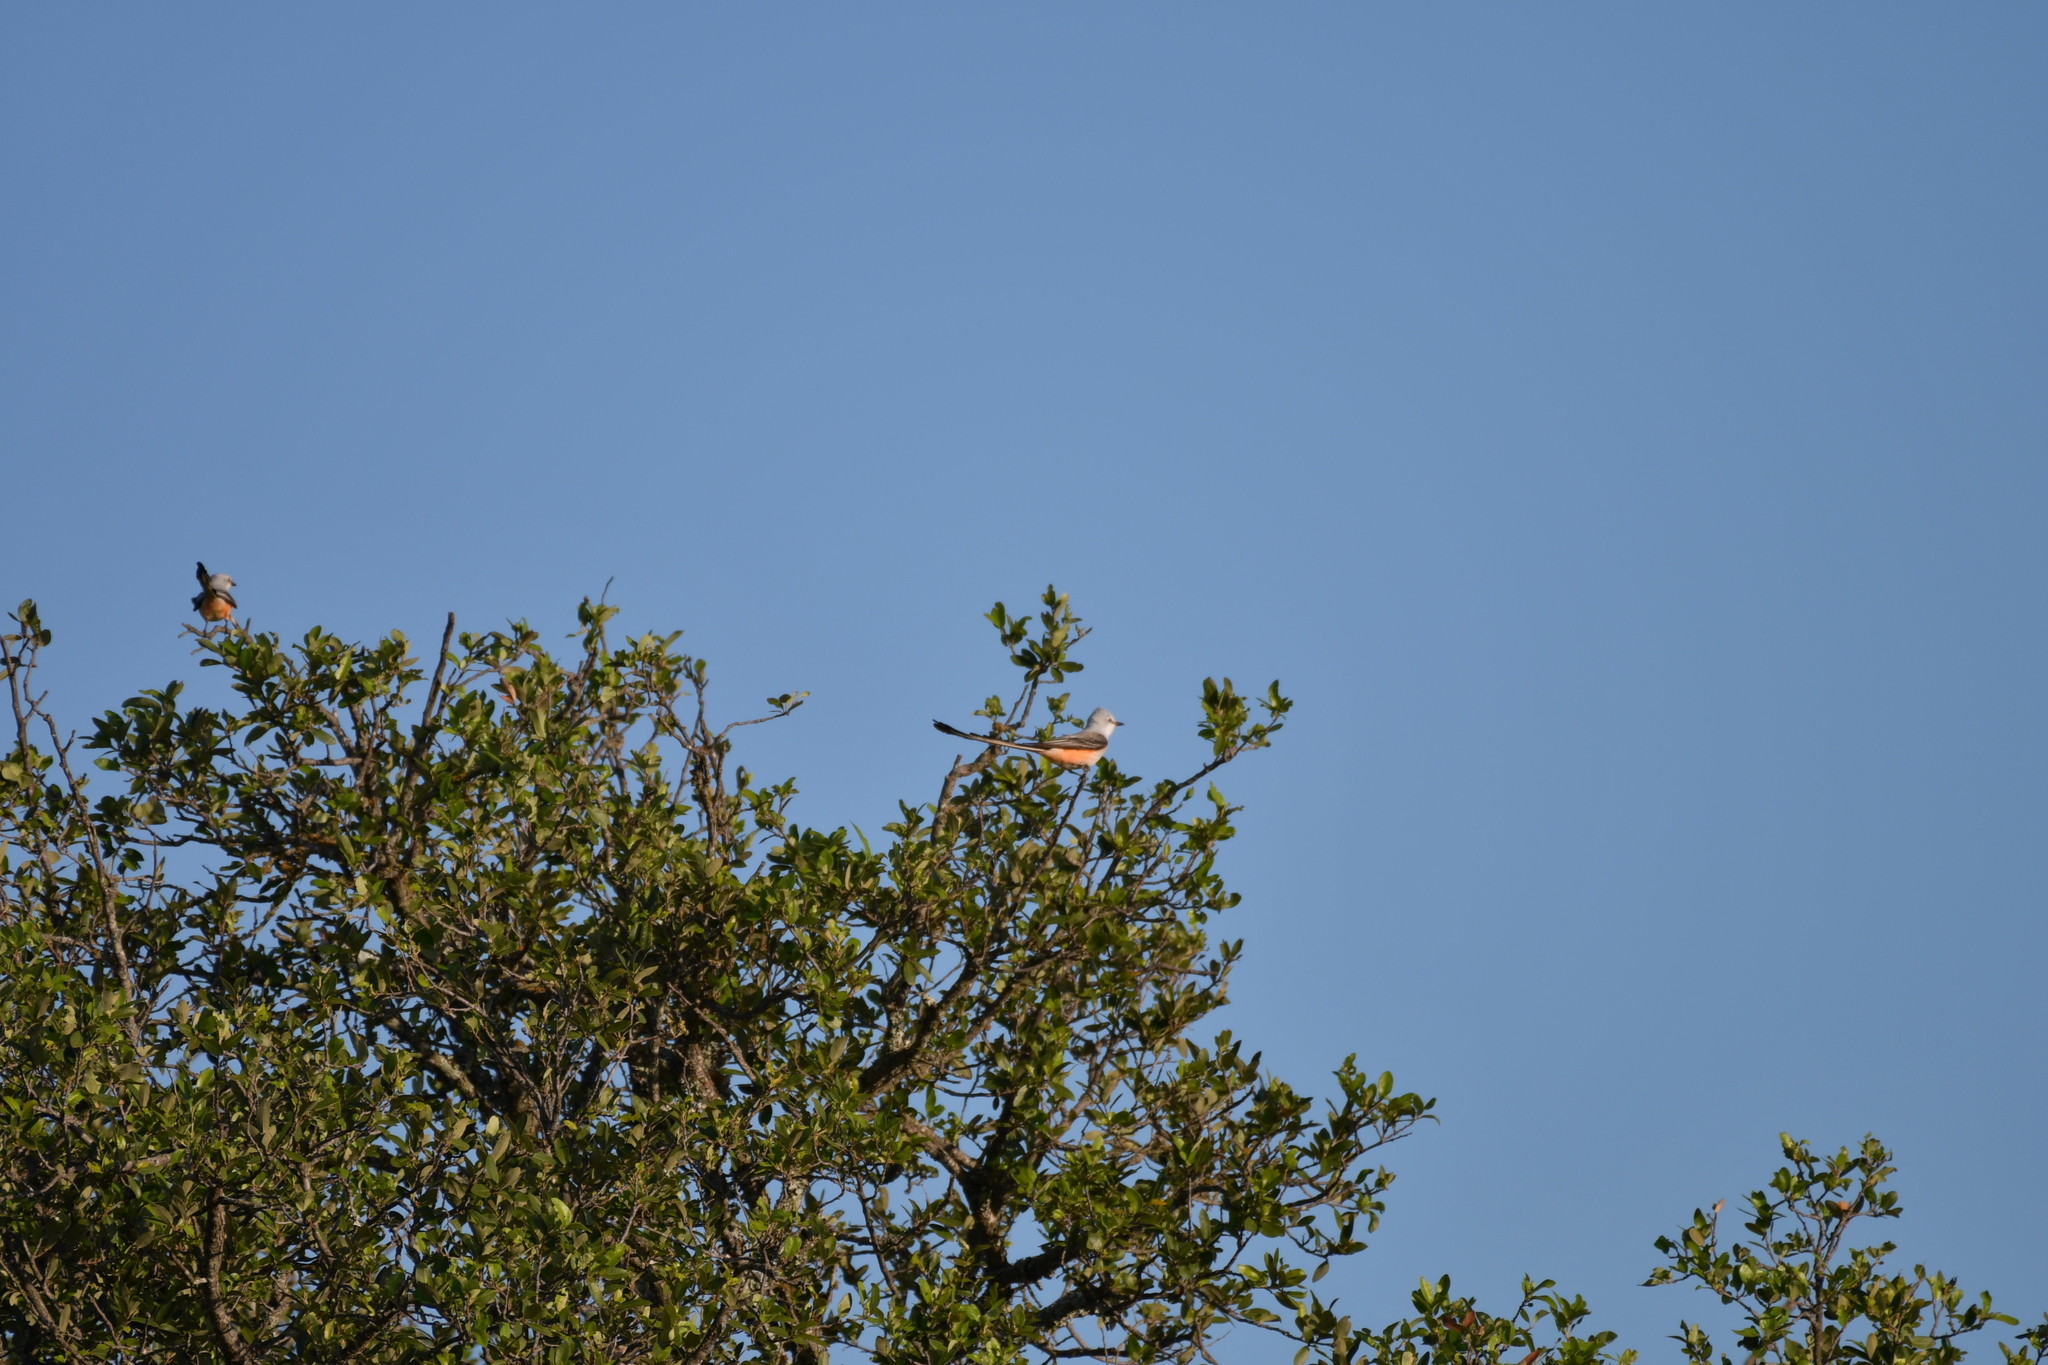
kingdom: Animalia
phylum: Chordata
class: Aves
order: Passeriformes
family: Tyrannidae
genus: Tyrannus
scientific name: Tyrannus forficatus
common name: Scissor-tailed flycatcher
